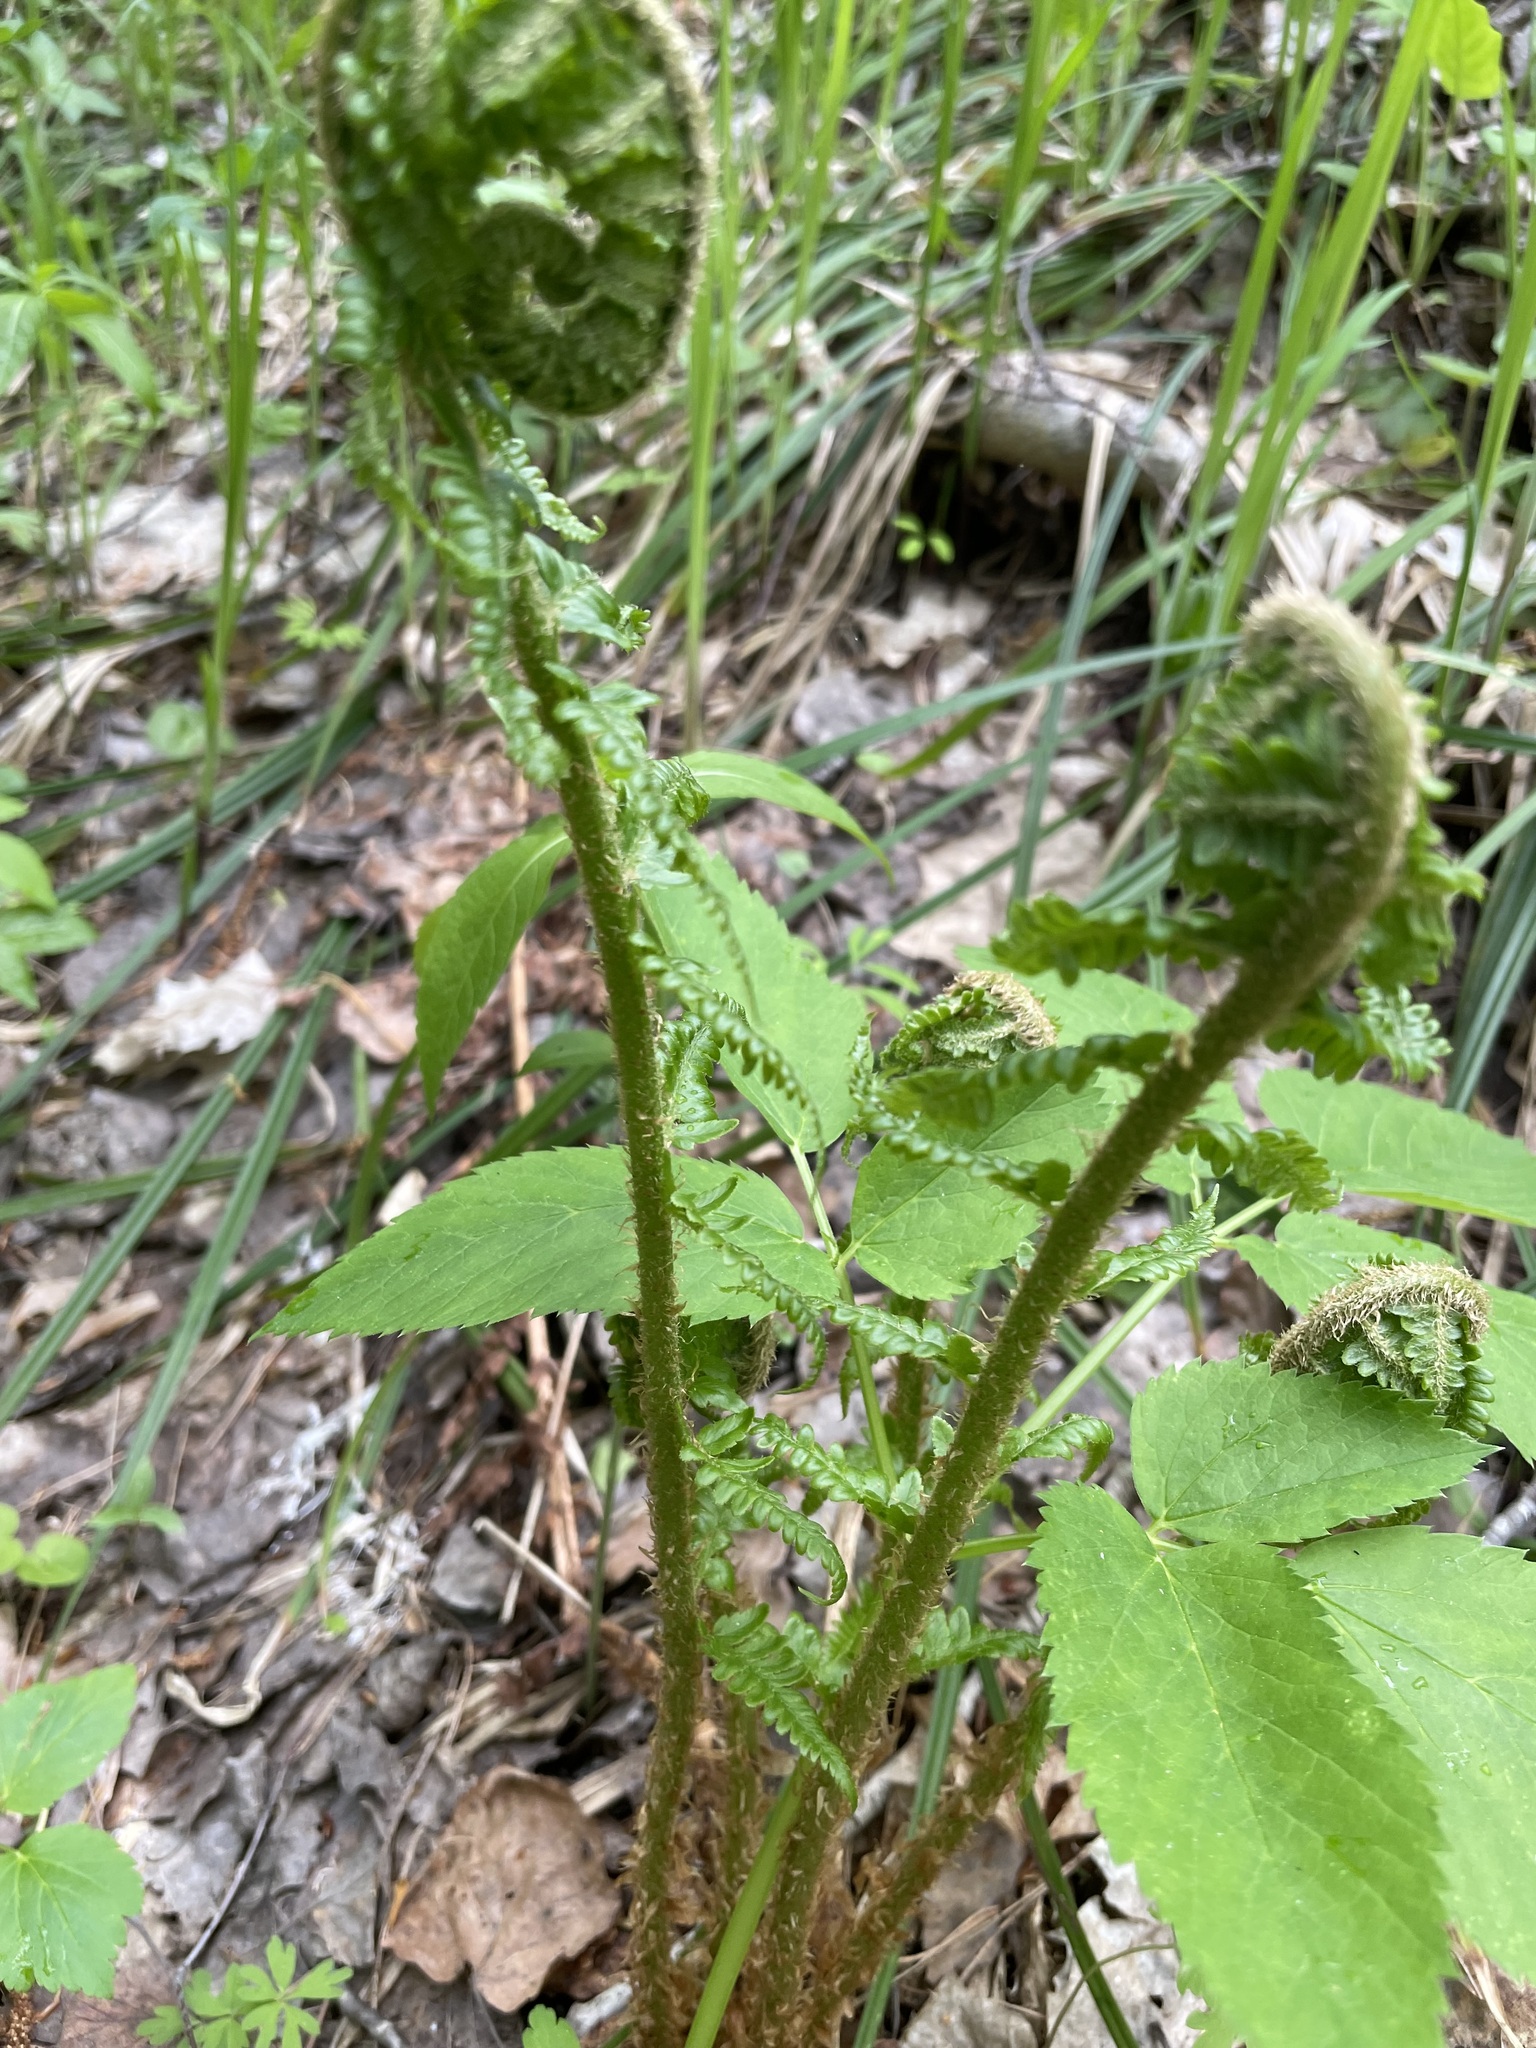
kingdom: Plantae
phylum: Tracheophyta
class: Polypodiopsida
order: Polypodiales
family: Dryopteridaceae
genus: Dryopteris
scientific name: Dryopteris filix-mas
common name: Male fern
